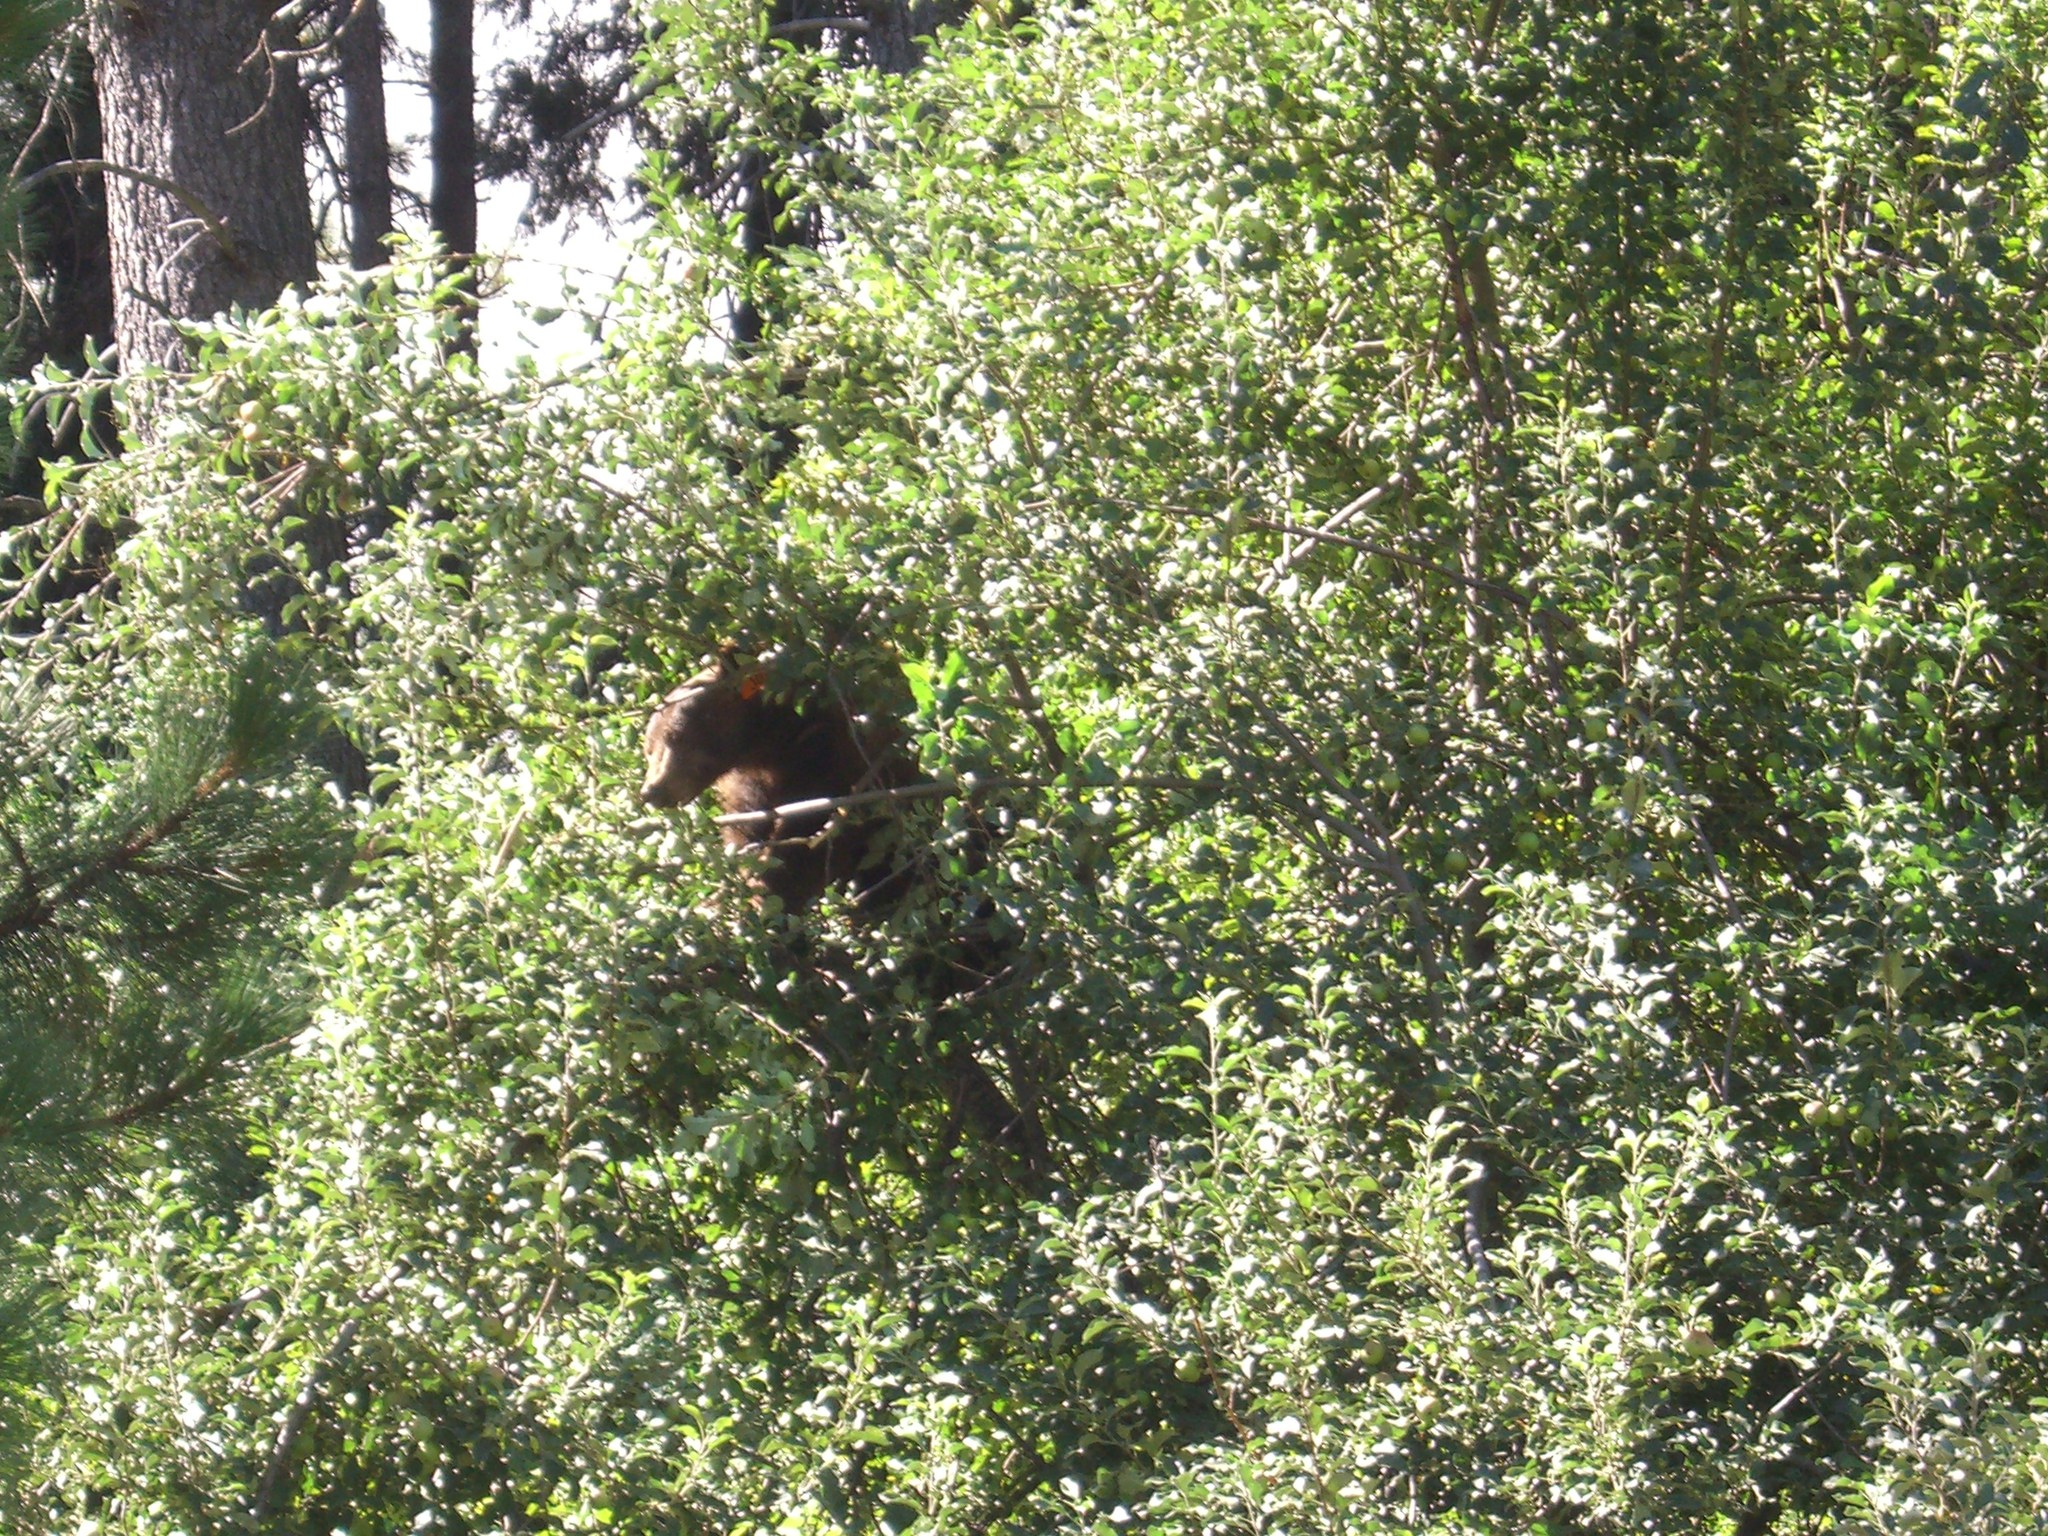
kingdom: Animalia
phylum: Chordata
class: Mammalia
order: Carnivora
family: Ursidae
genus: Ursus
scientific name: Ursus americanus
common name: American black bear
